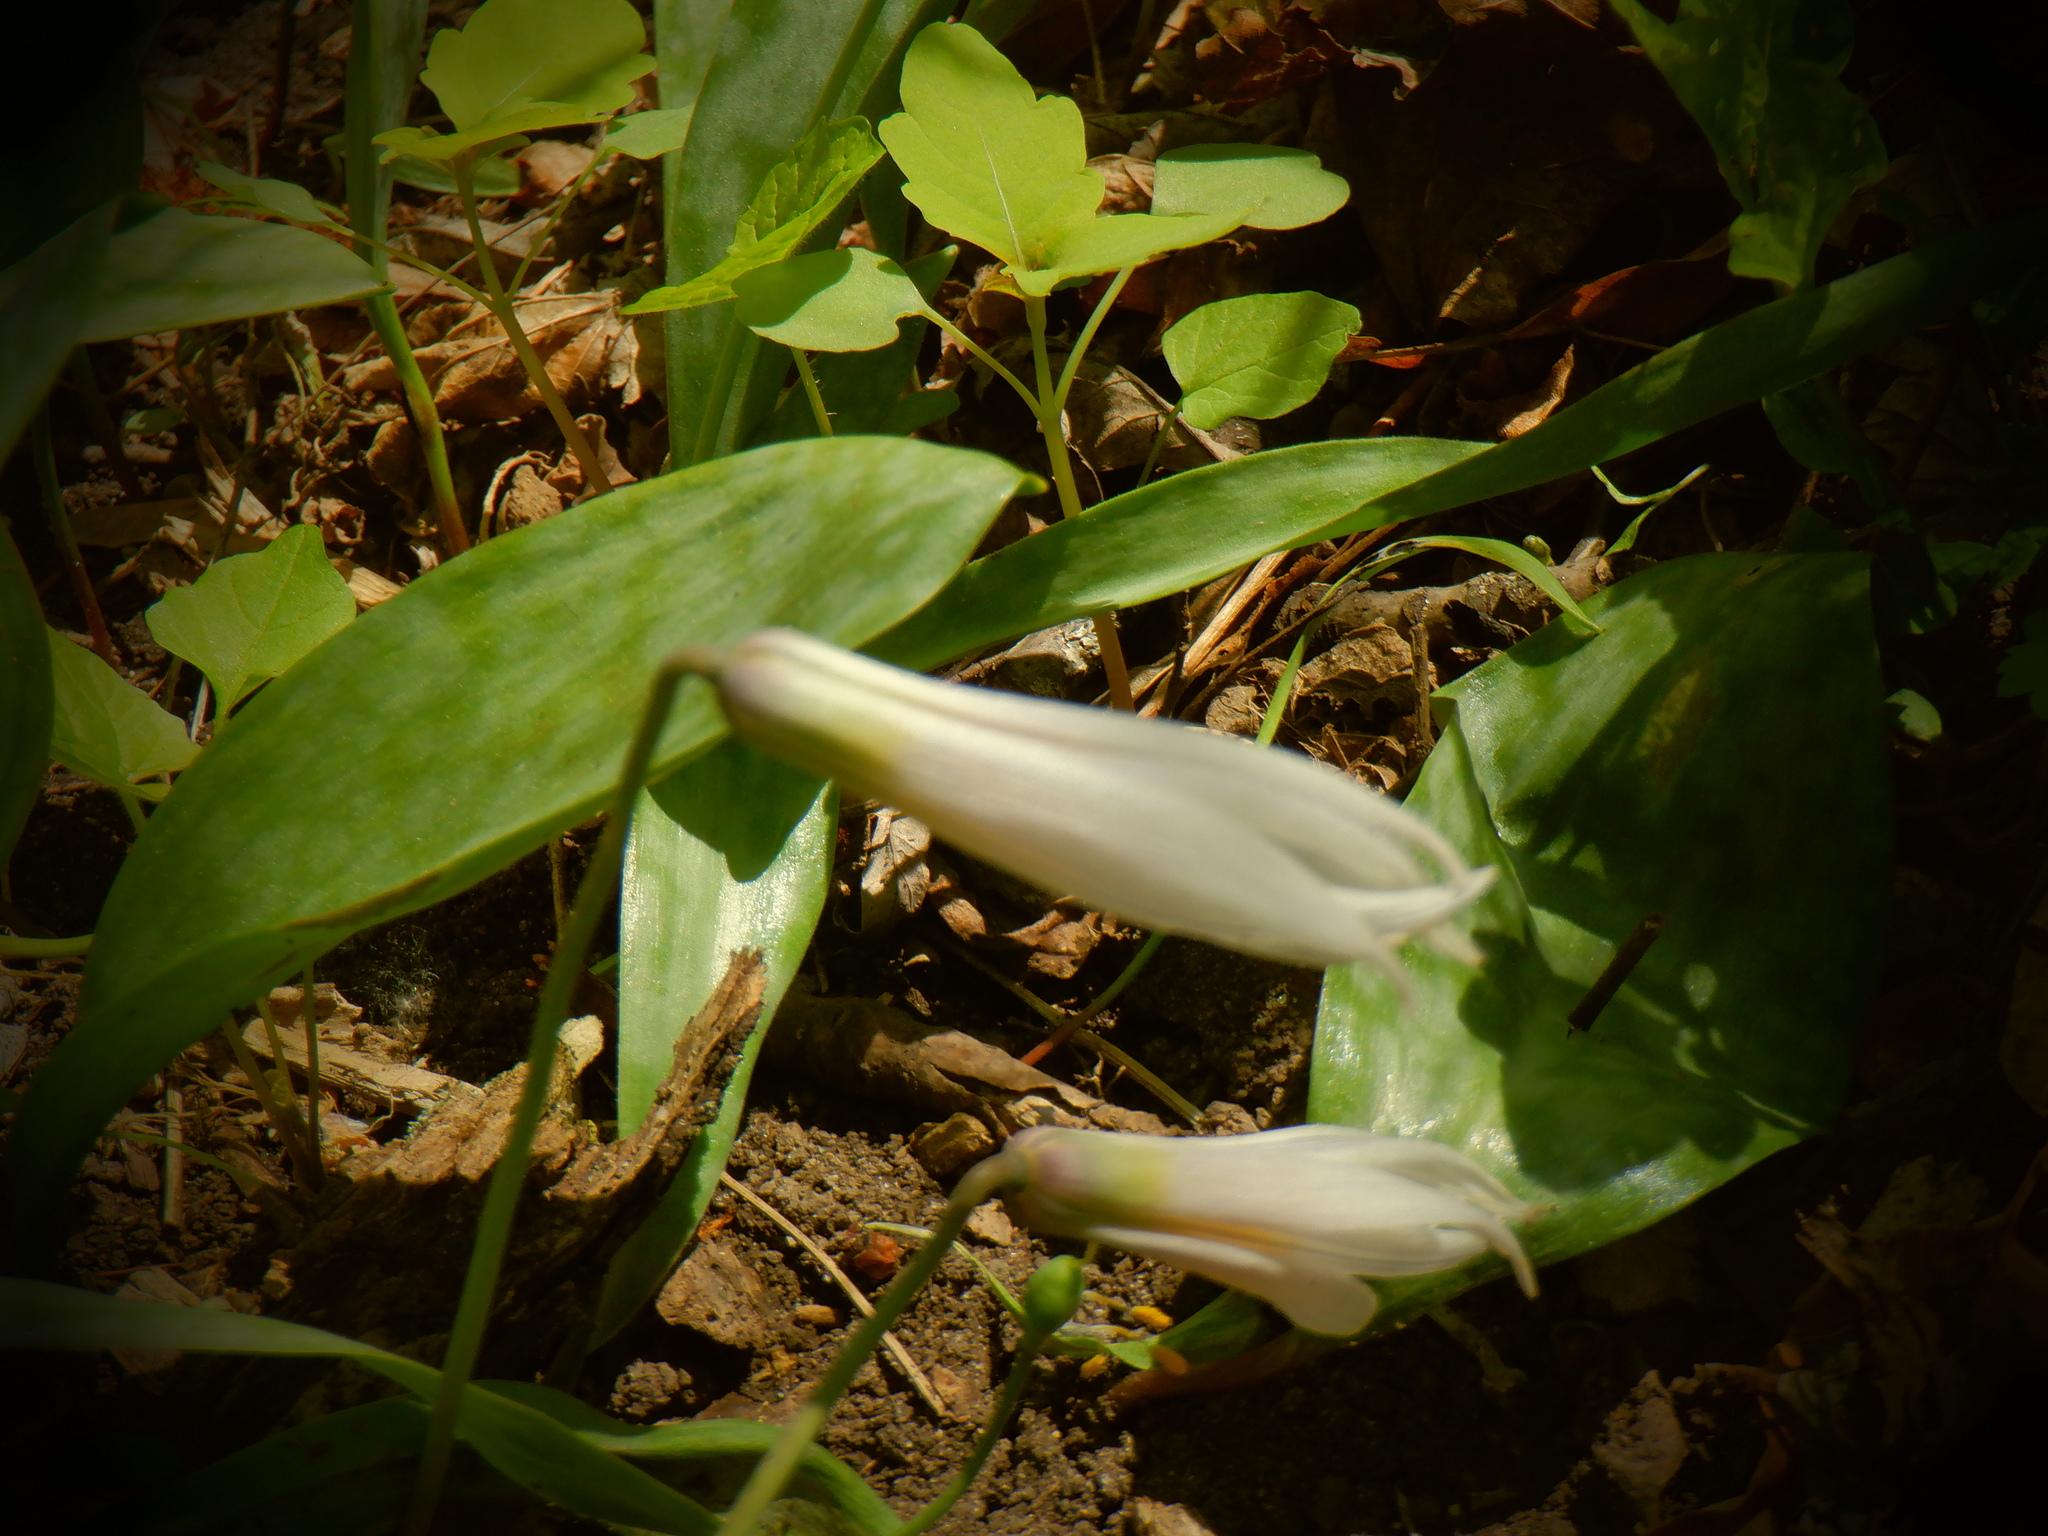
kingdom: Plantae
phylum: Tracheophyta
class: Liliopsida
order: Liliales
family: Liliaceae
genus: Erythronium
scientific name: Erythronium albidum
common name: White trout-lily
